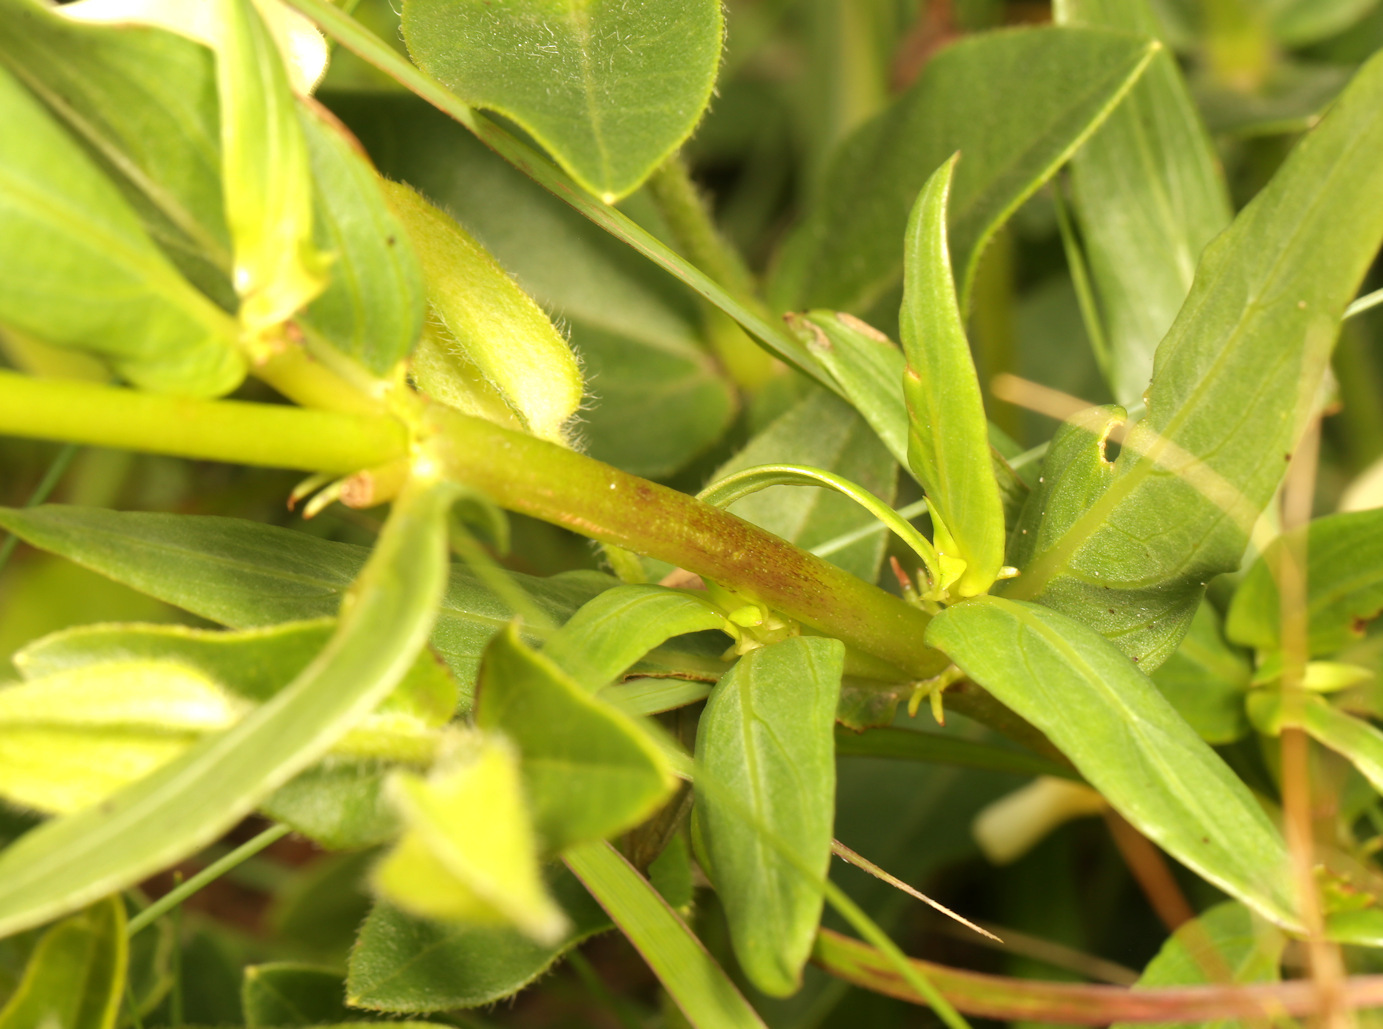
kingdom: Plantae
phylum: Tracheophyta
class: Magnoliopsida
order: Gentianales
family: Rubiaceae
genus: Pentanisia
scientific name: Pentanisia angustifolia
